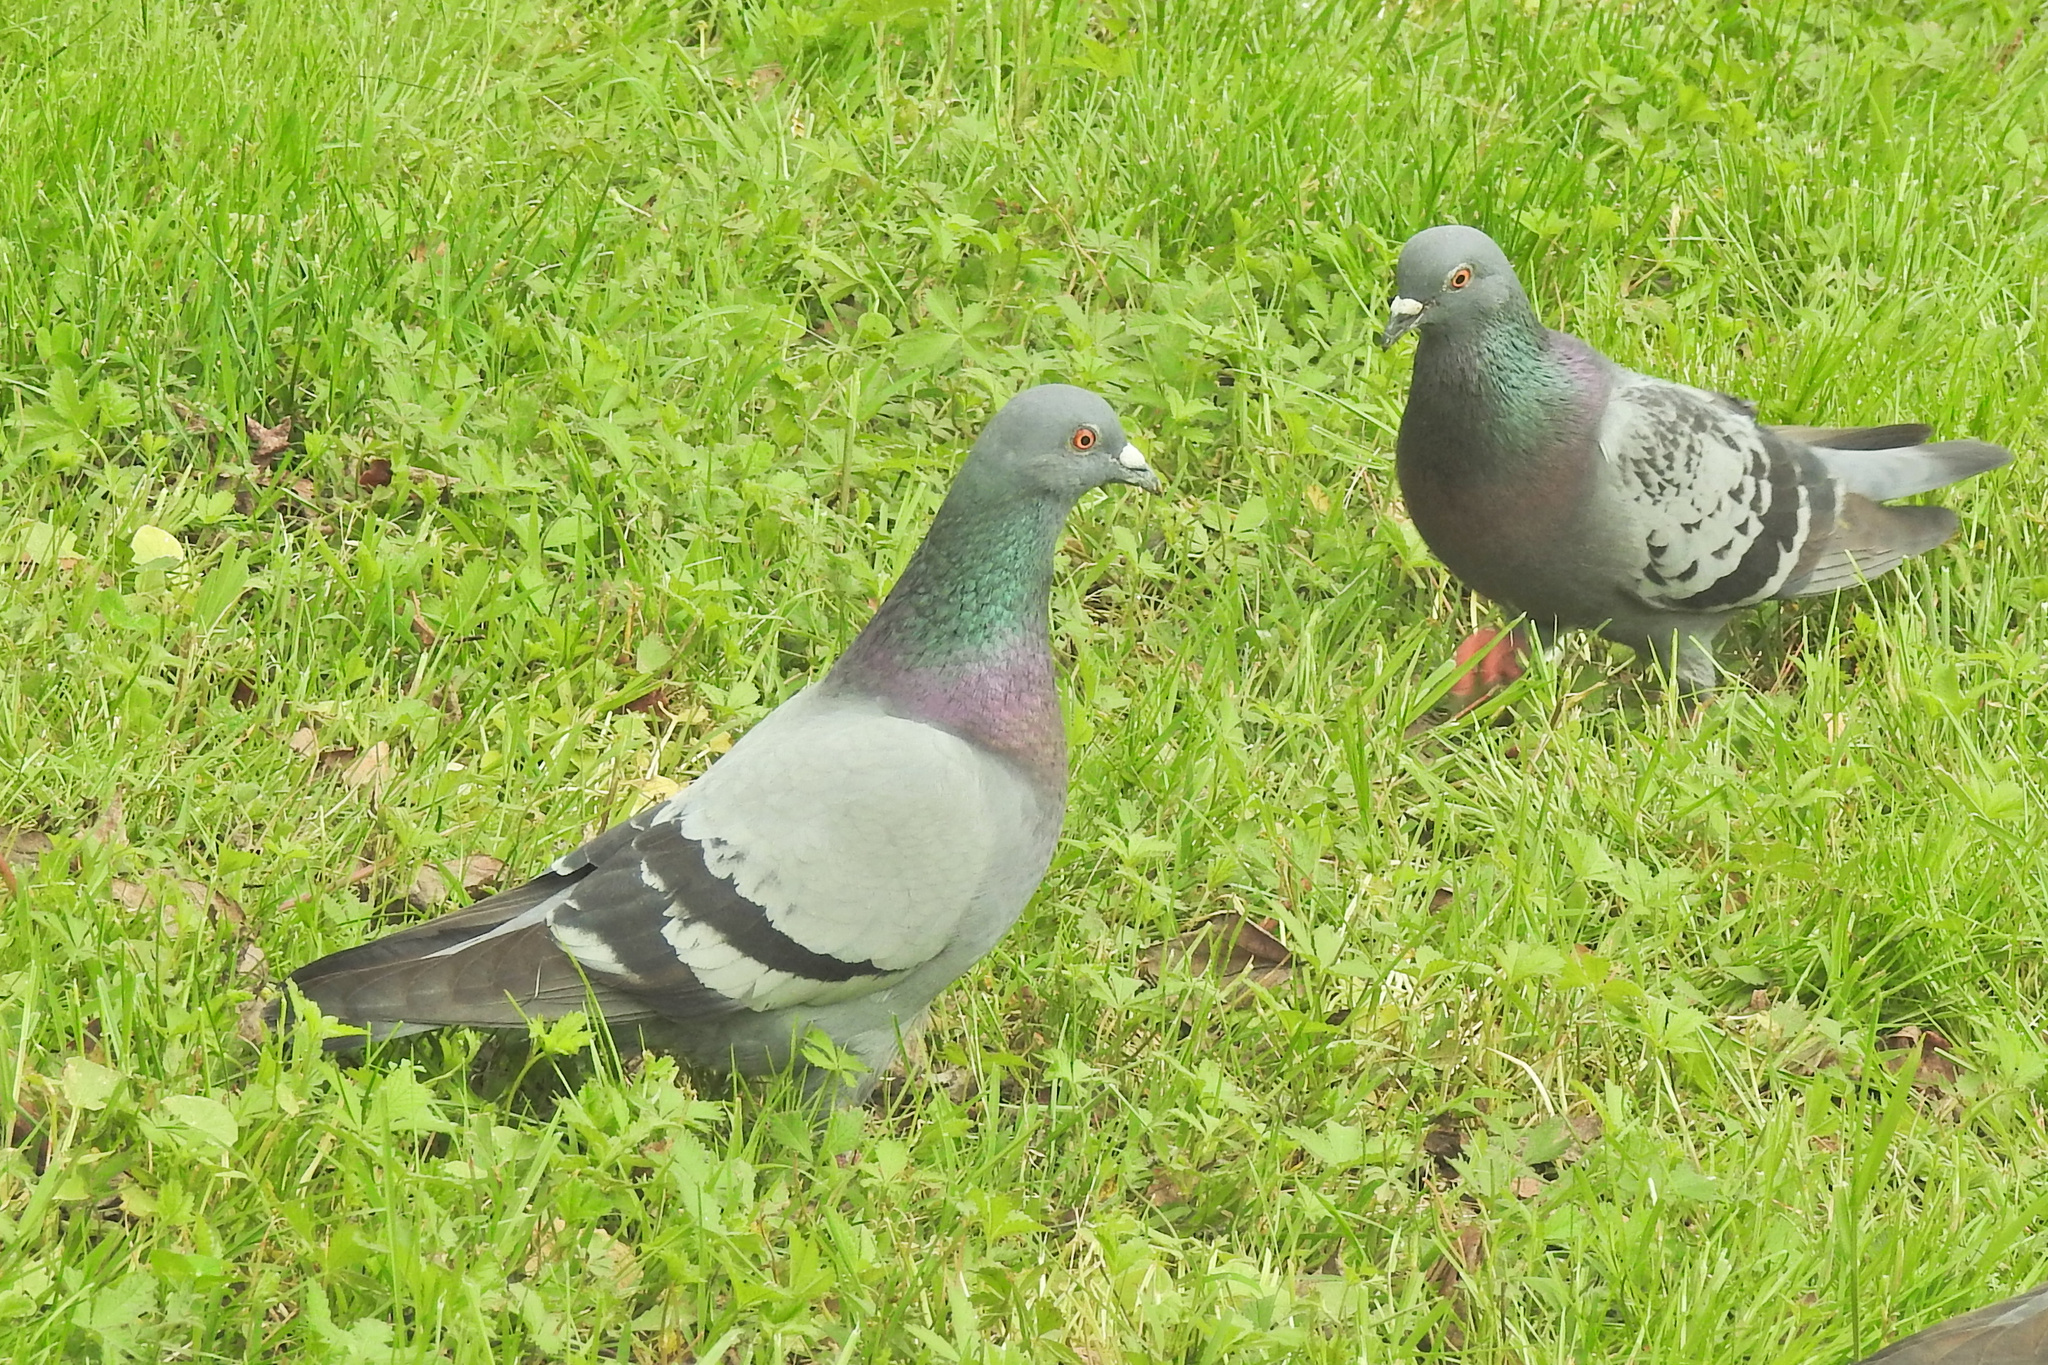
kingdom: Animalia
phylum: Chordata
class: Aves
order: Columbiformes
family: Columbidae
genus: Columba
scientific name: Columba livia
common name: Rock pigeon
